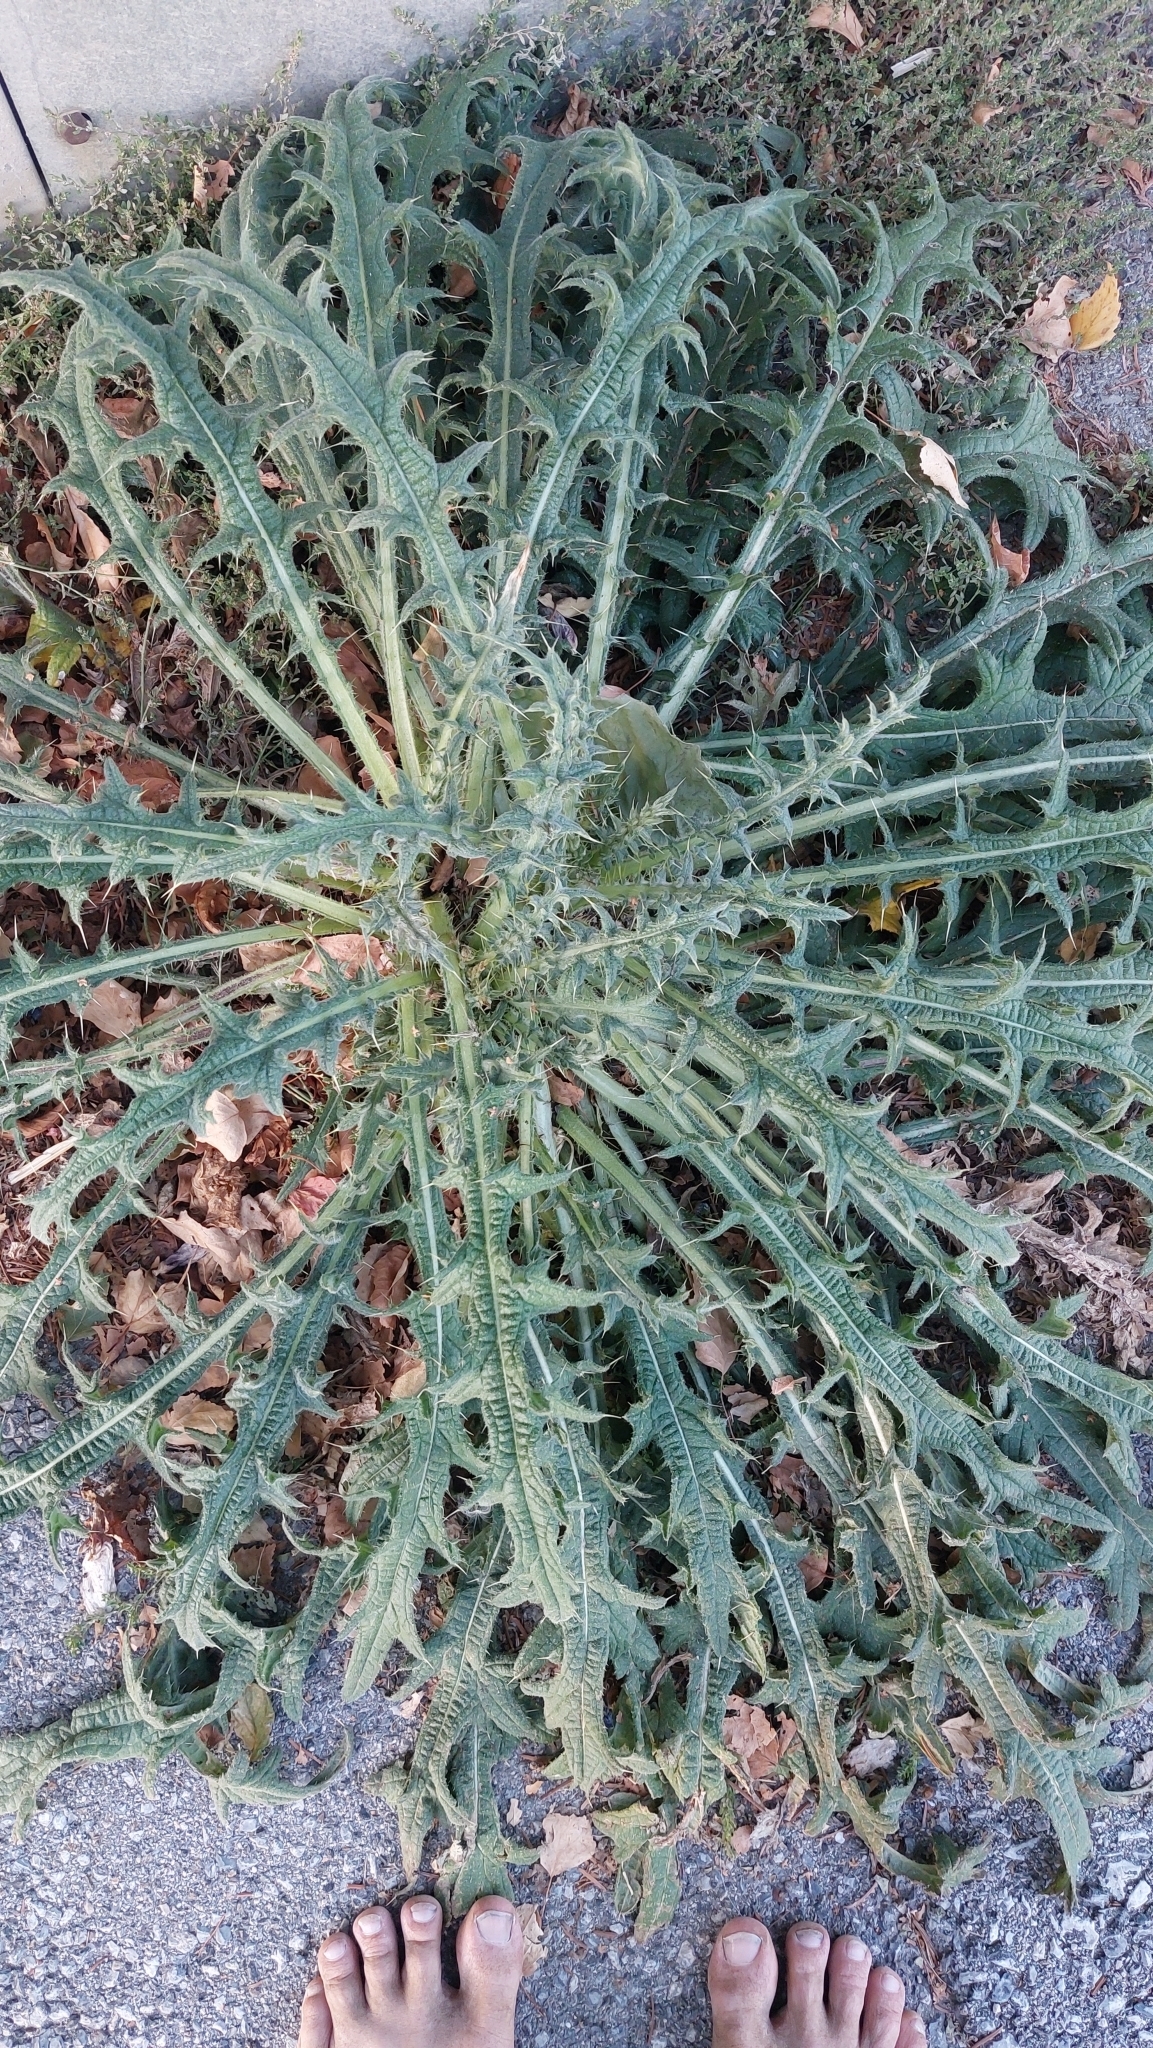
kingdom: Plantae
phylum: Tracheophyta
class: Magnoliopsida
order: Asterales
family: Asteraceae
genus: Cirsium
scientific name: Cirsium vulgare
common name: Bull thistle
